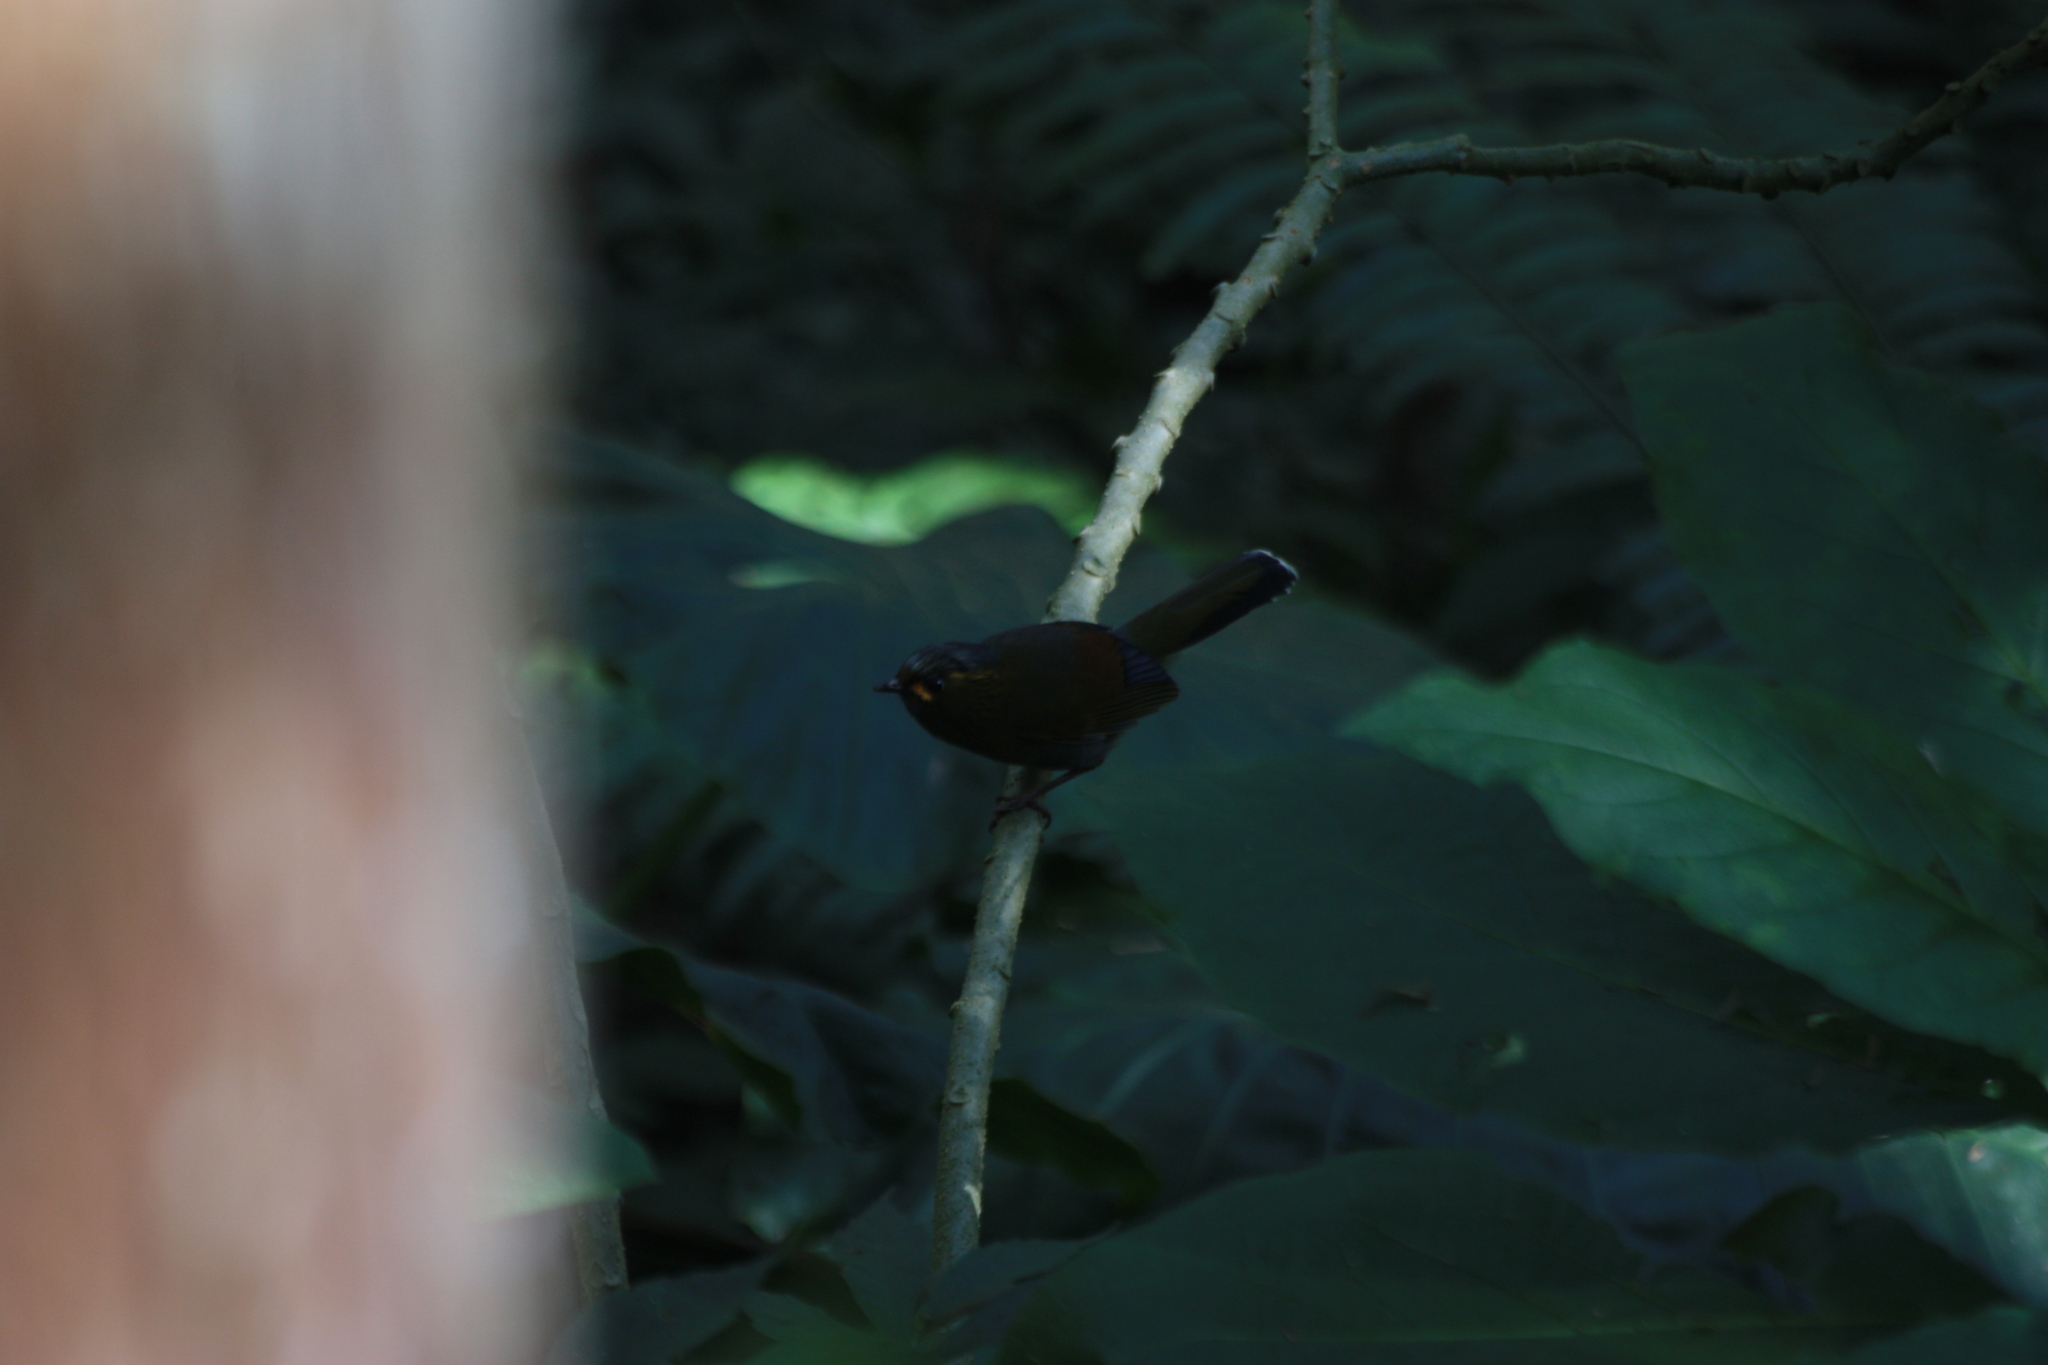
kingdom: Animalia
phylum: Chordata
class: Aves
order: Passeriformes
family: Leiothrichidae
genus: Liocichla
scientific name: Liocichla steerii
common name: Steere's liocichla
